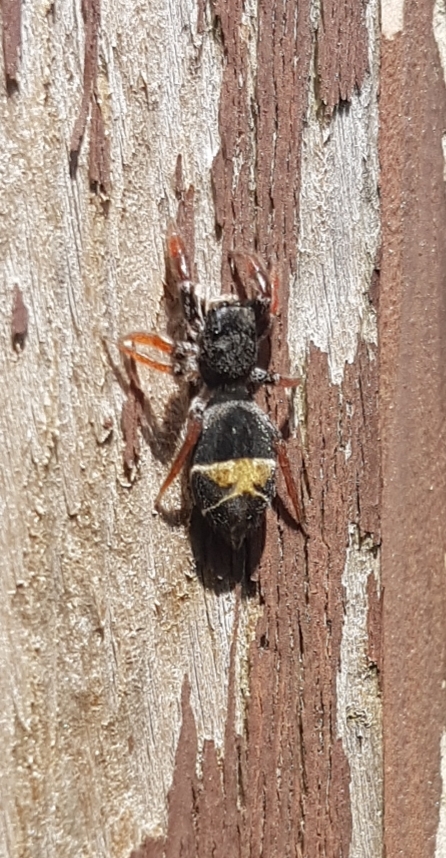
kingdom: Animalia
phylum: Arthropoda
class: Arachnida
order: Araneae
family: Salticidae
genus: Apricia
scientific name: Apricia jovialis
